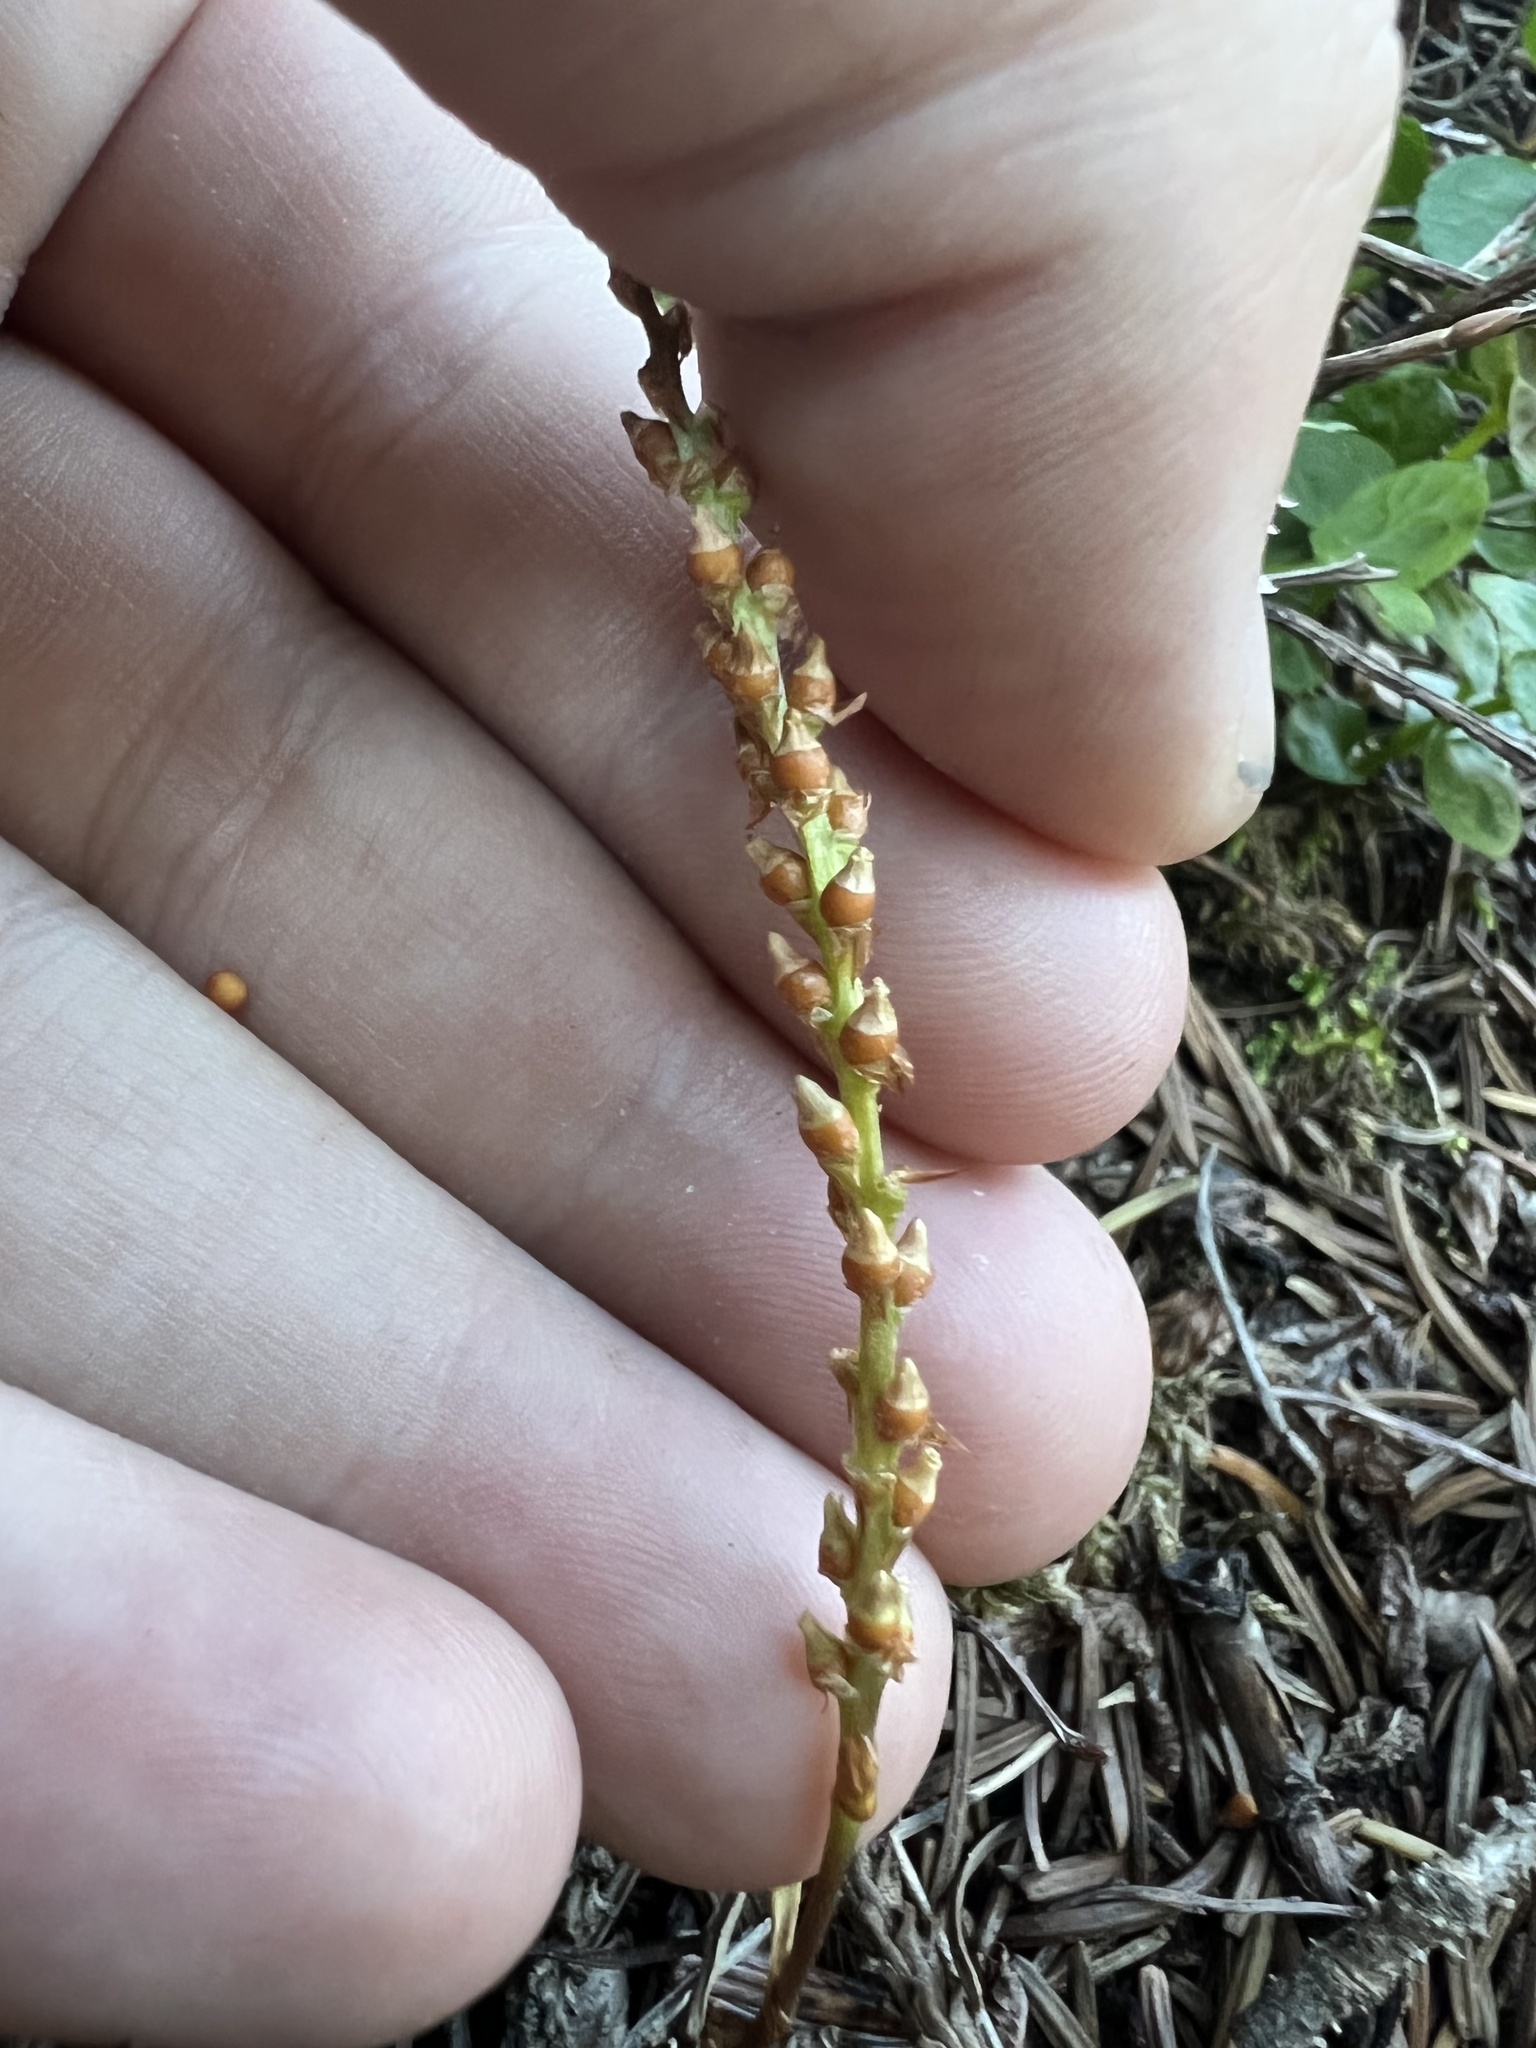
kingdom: Plantae
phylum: Tracheophyta
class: Magnoliopsida
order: Caryophyllales
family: Polygonaceae
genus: Bistorta
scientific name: Bistorta vivipara
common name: Alpine bistort
